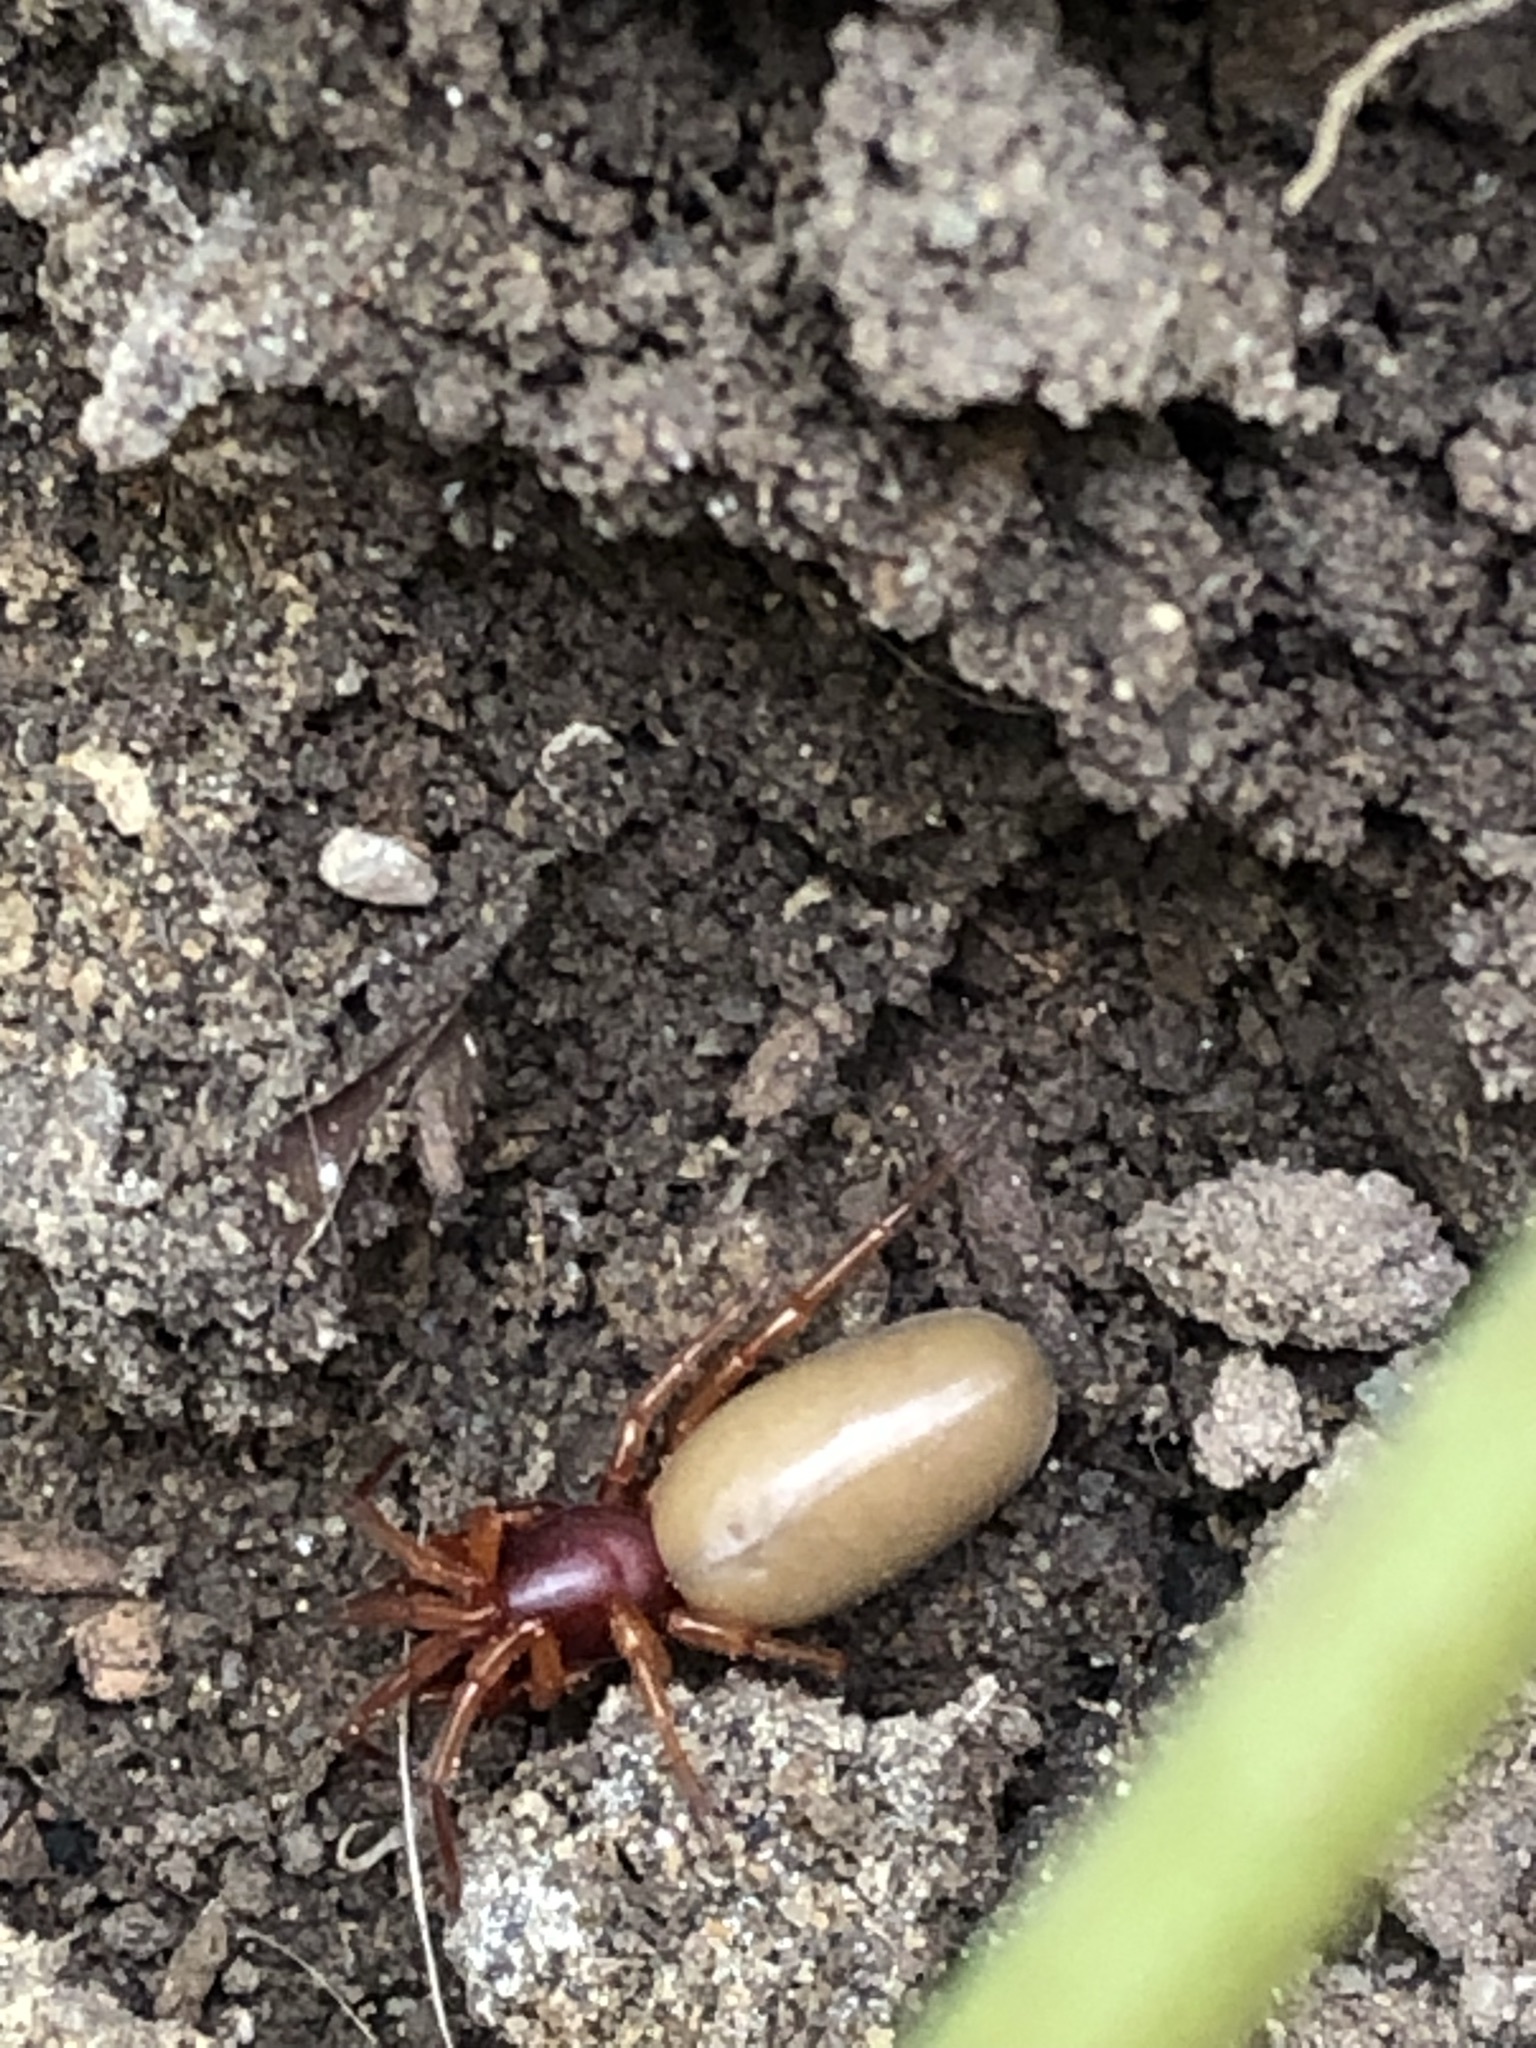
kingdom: Animalia
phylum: Arthropoda
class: Arachnida
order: Araneae
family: Dysderidae
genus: Dysdera
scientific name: Dysdera crocata
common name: Woodlouse spider
